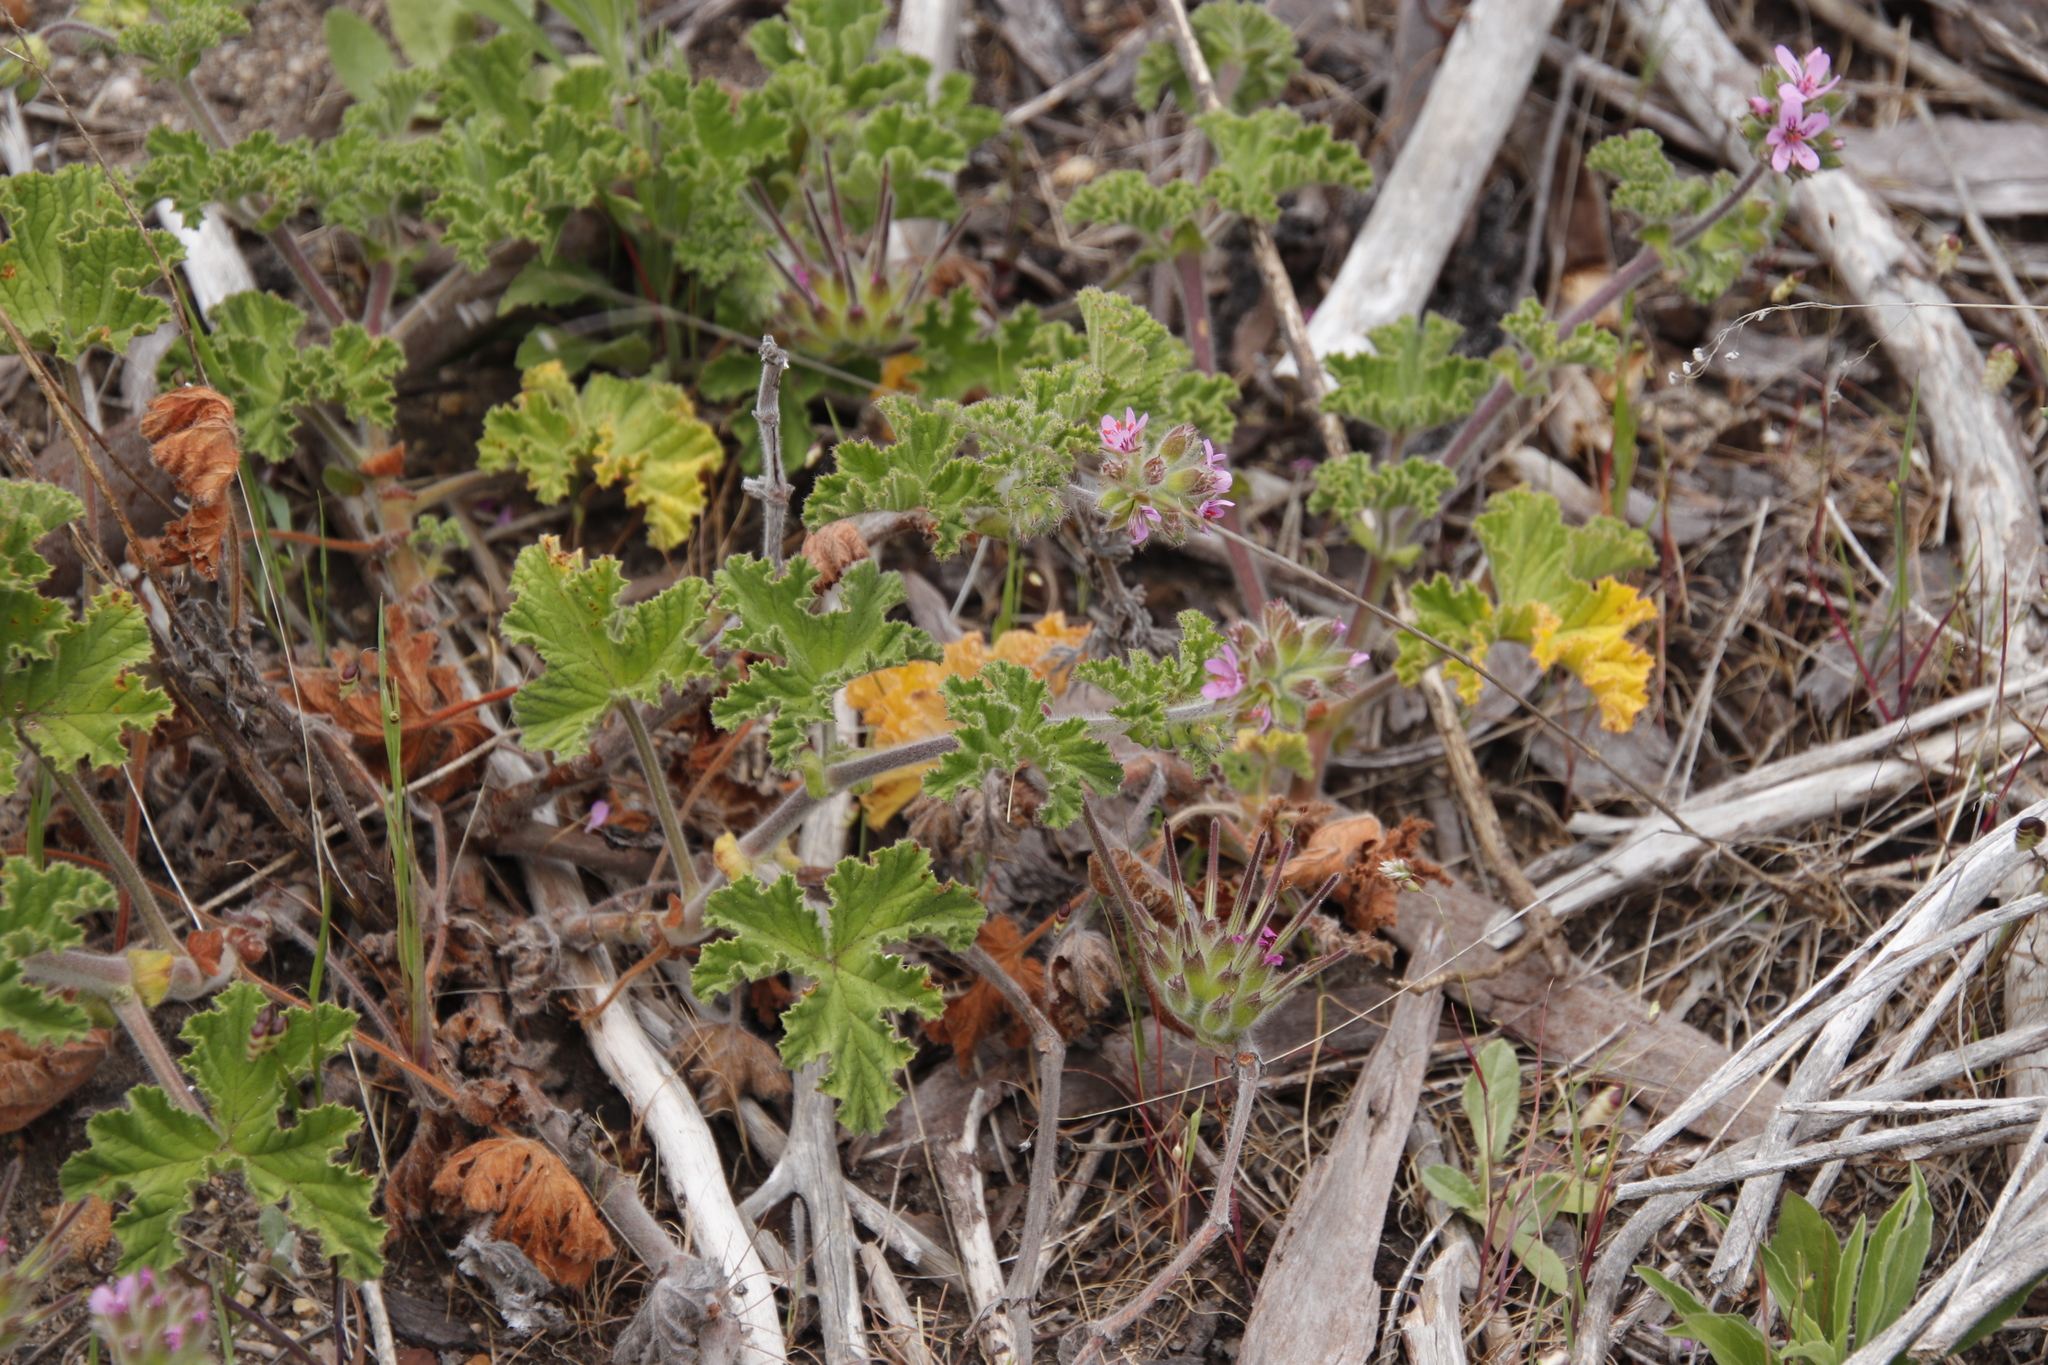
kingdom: Plantae
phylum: Tracheophyta
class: Magnoliopsida
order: Geraniales
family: Geraniaceae
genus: Pelargonium
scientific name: Pelargonium capitatum
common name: Rose scented geranium
